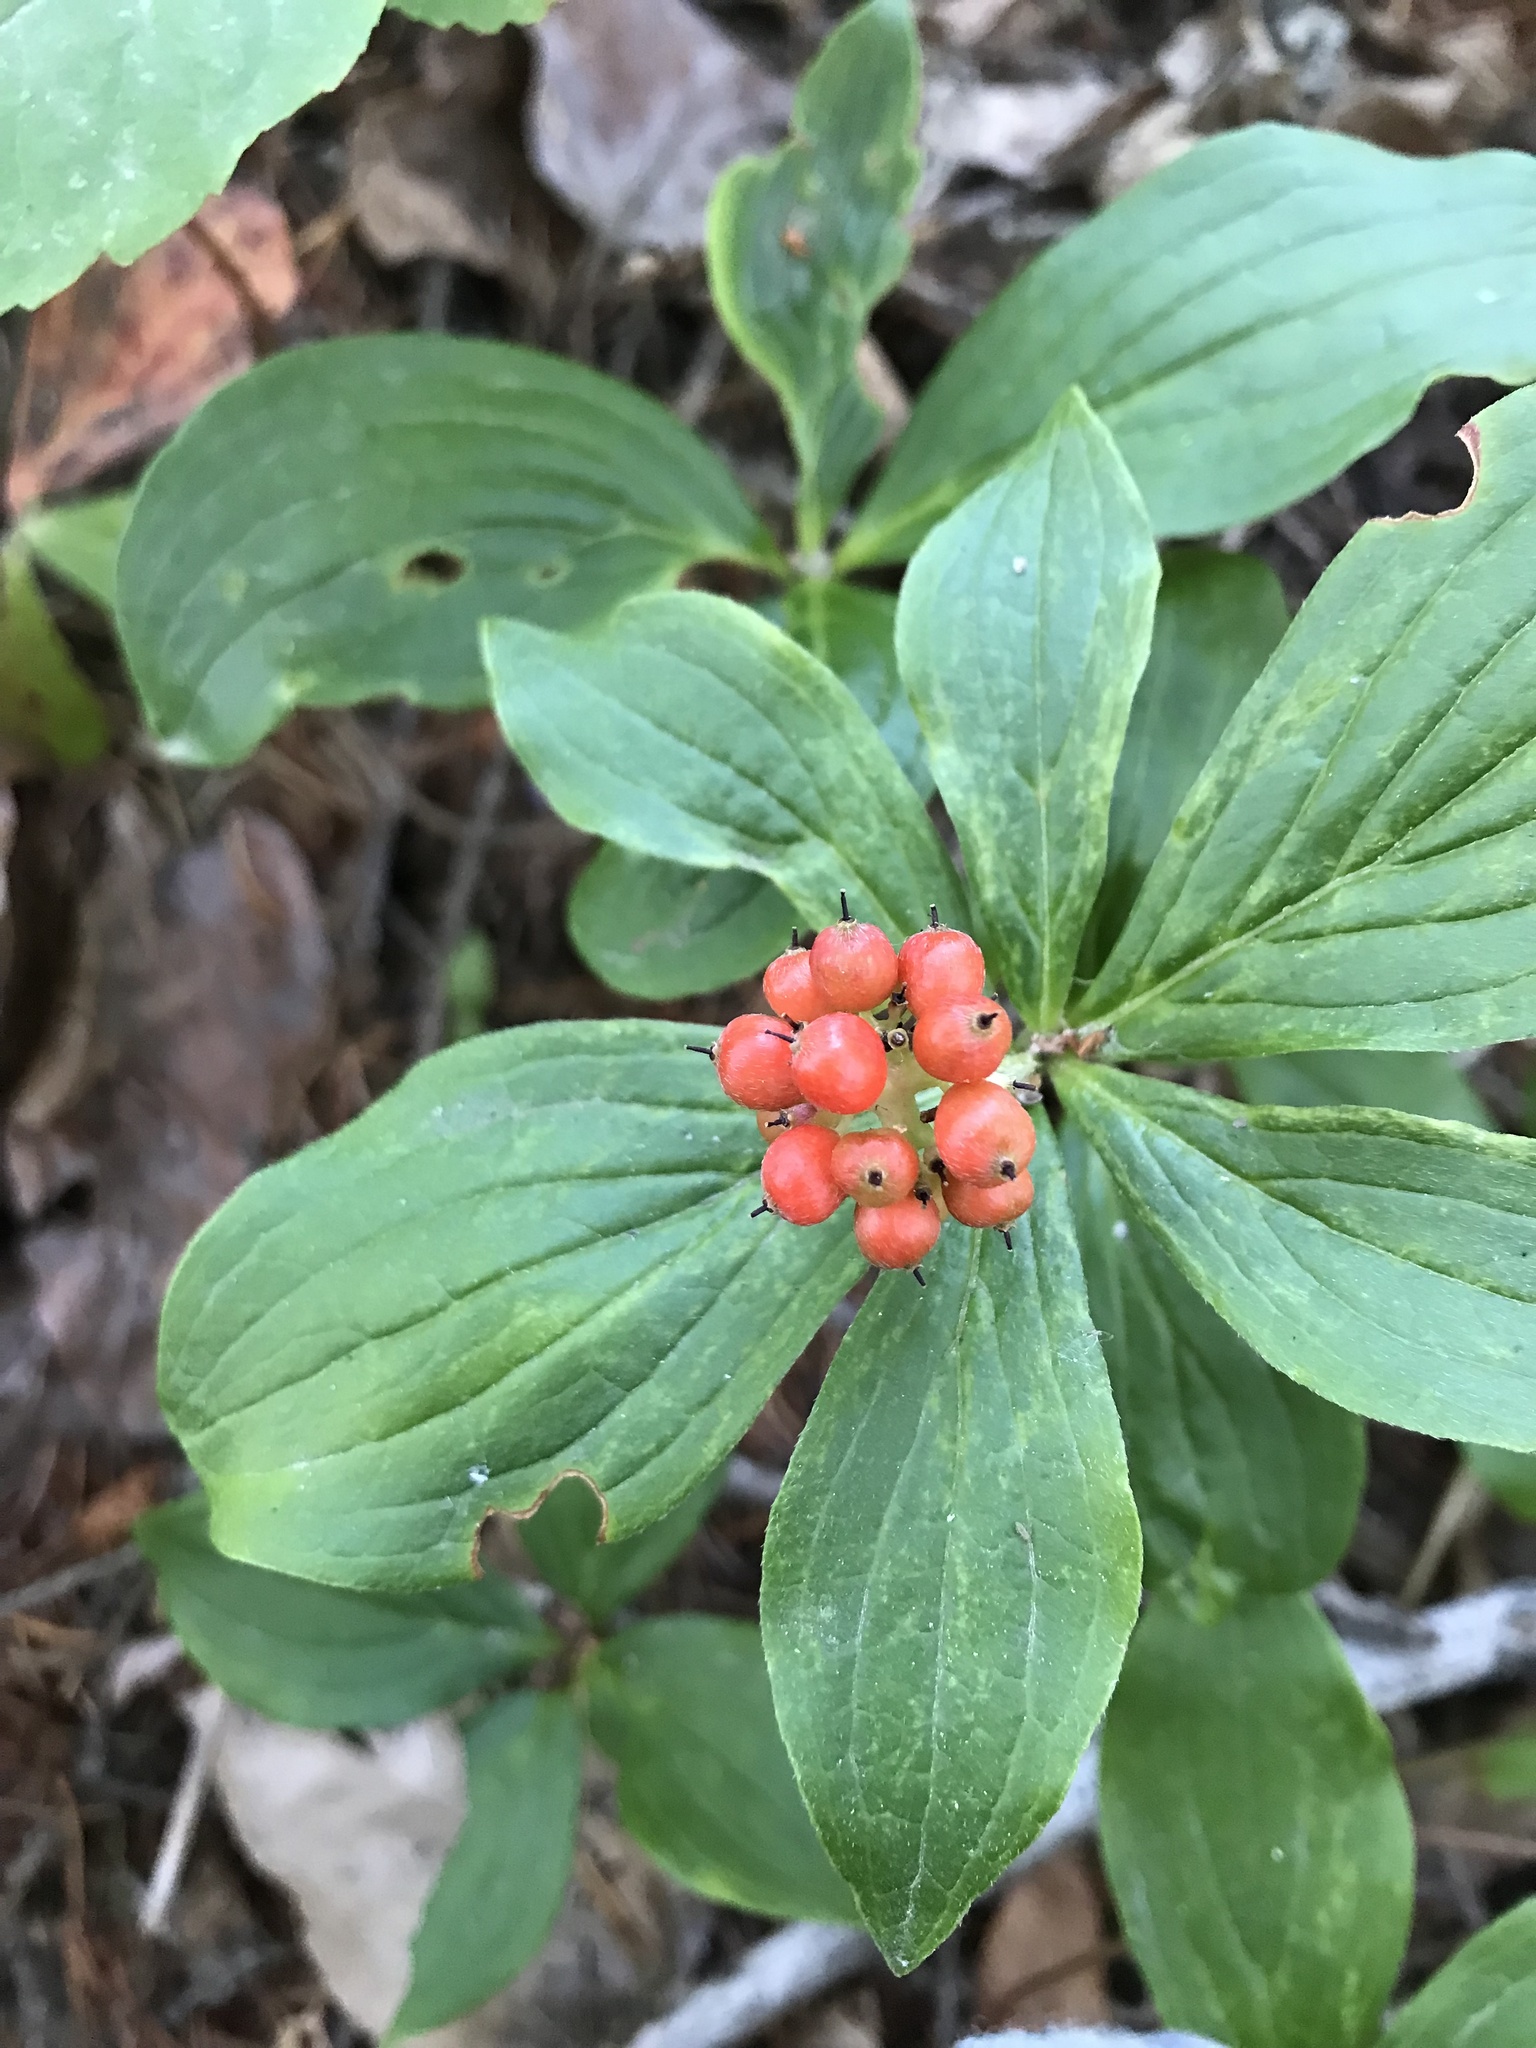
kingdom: Plantae
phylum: Tracheophyta
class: Magnoliopsida
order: Cornales
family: Cornaceae
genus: Cornus
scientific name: Cornus unalaschkensis
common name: Alaska bunchberry
